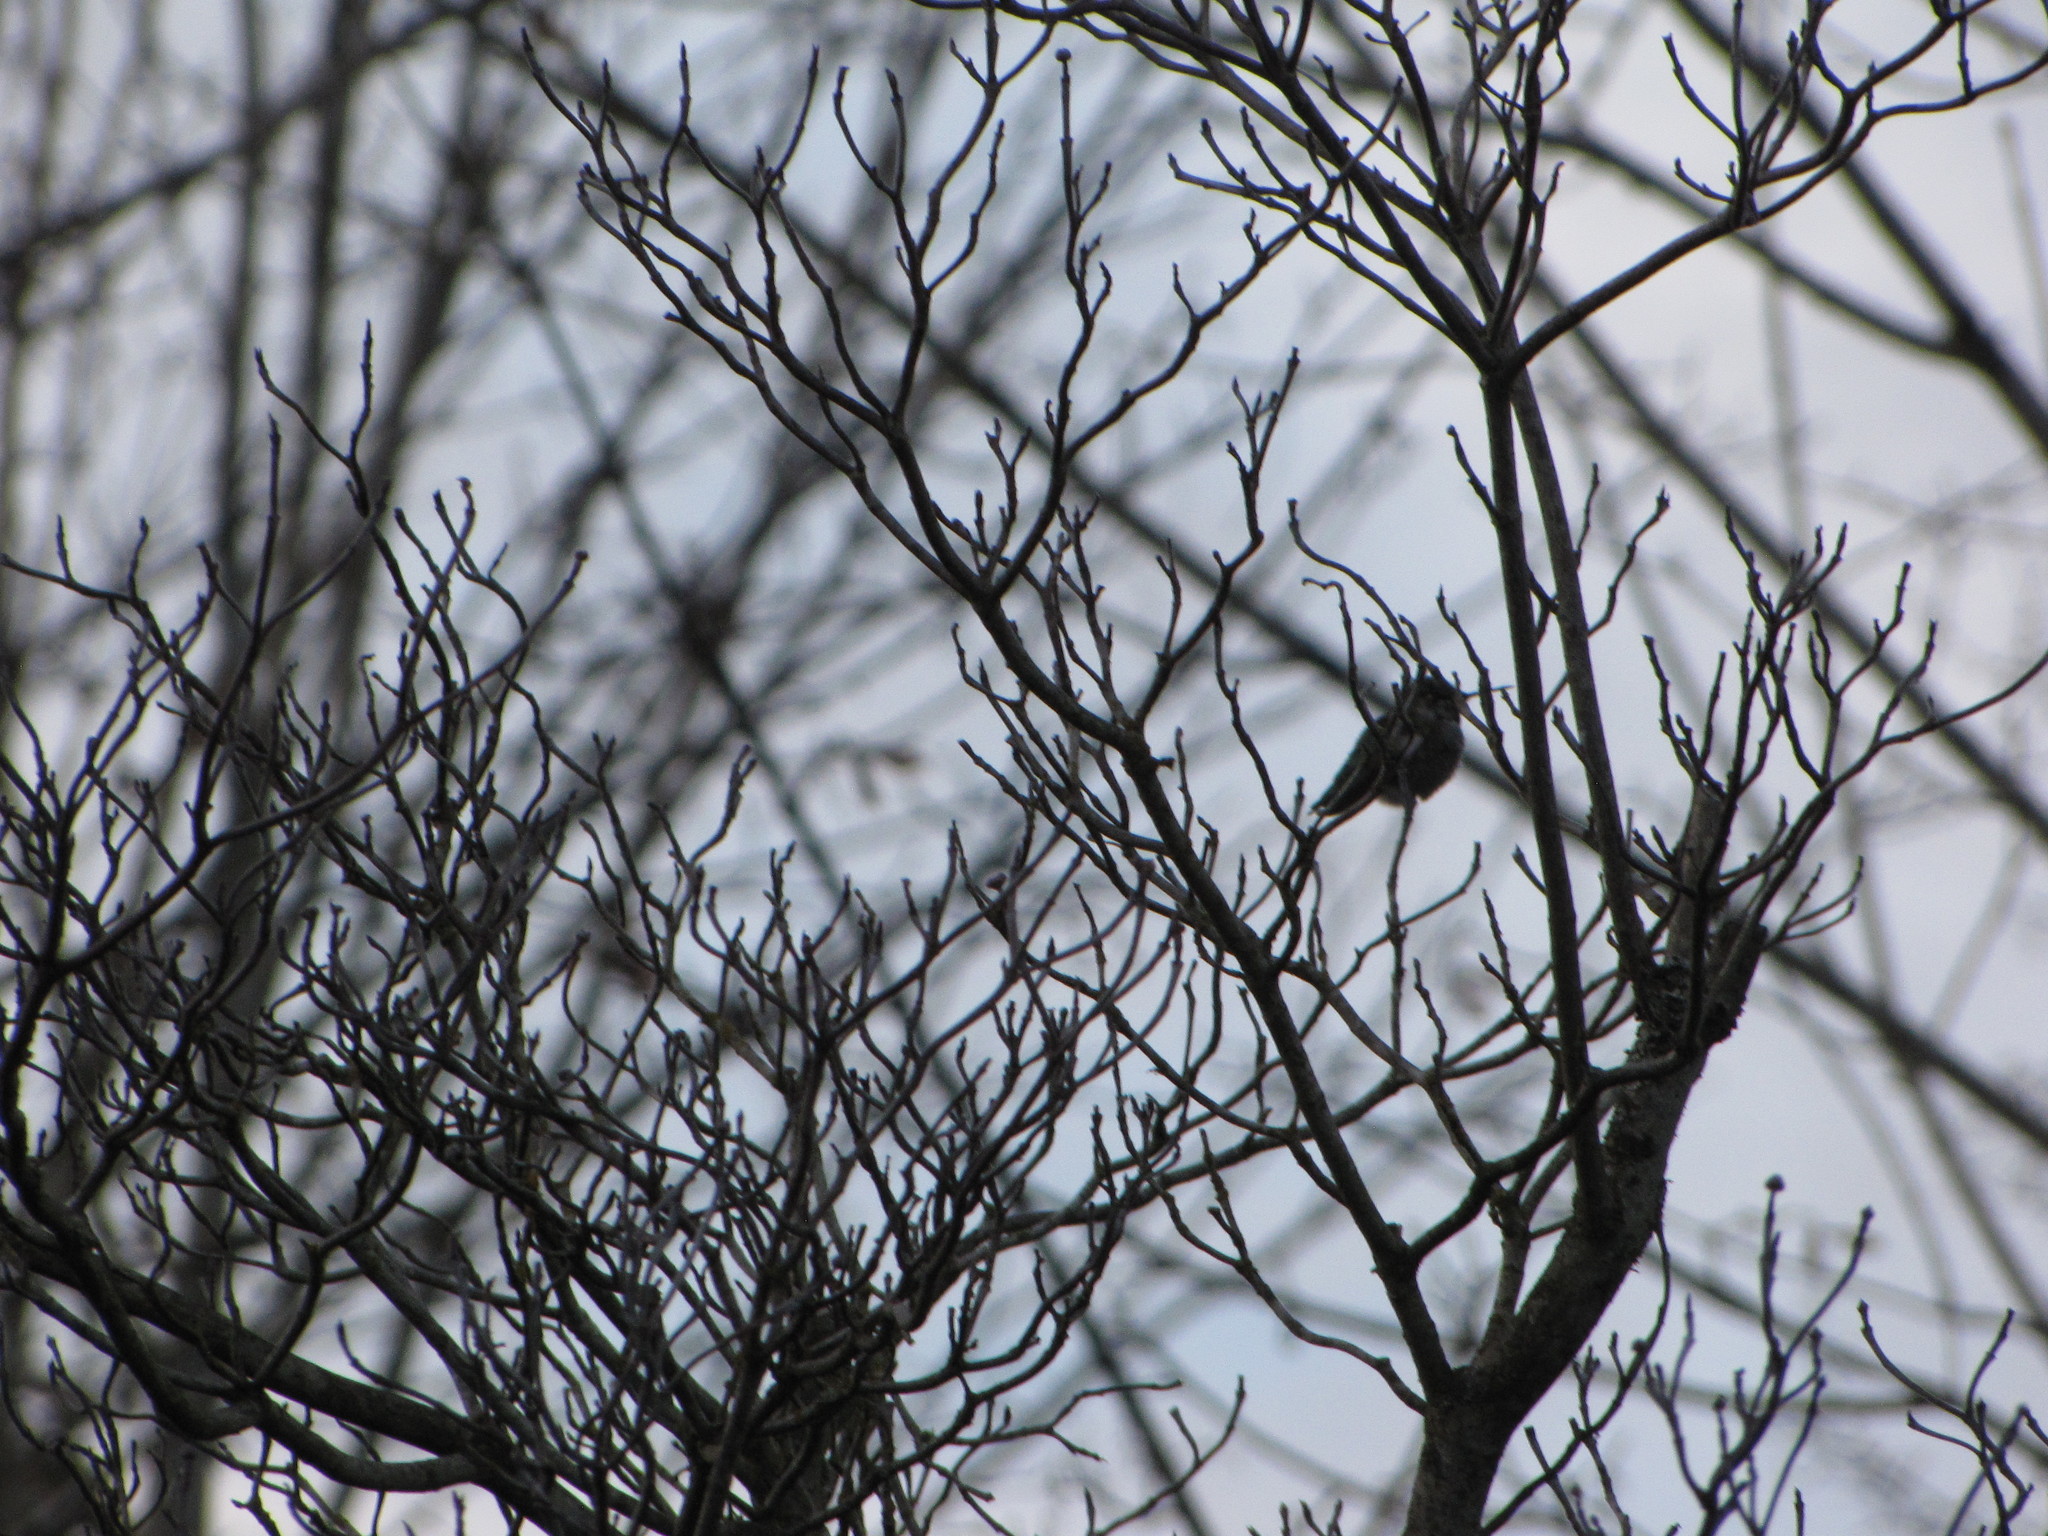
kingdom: Animalia
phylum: Chordata
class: Aves
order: Apodiformes
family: Trochilidae
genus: Calypte
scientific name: Calypte anna
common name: Anna's hummingbird
